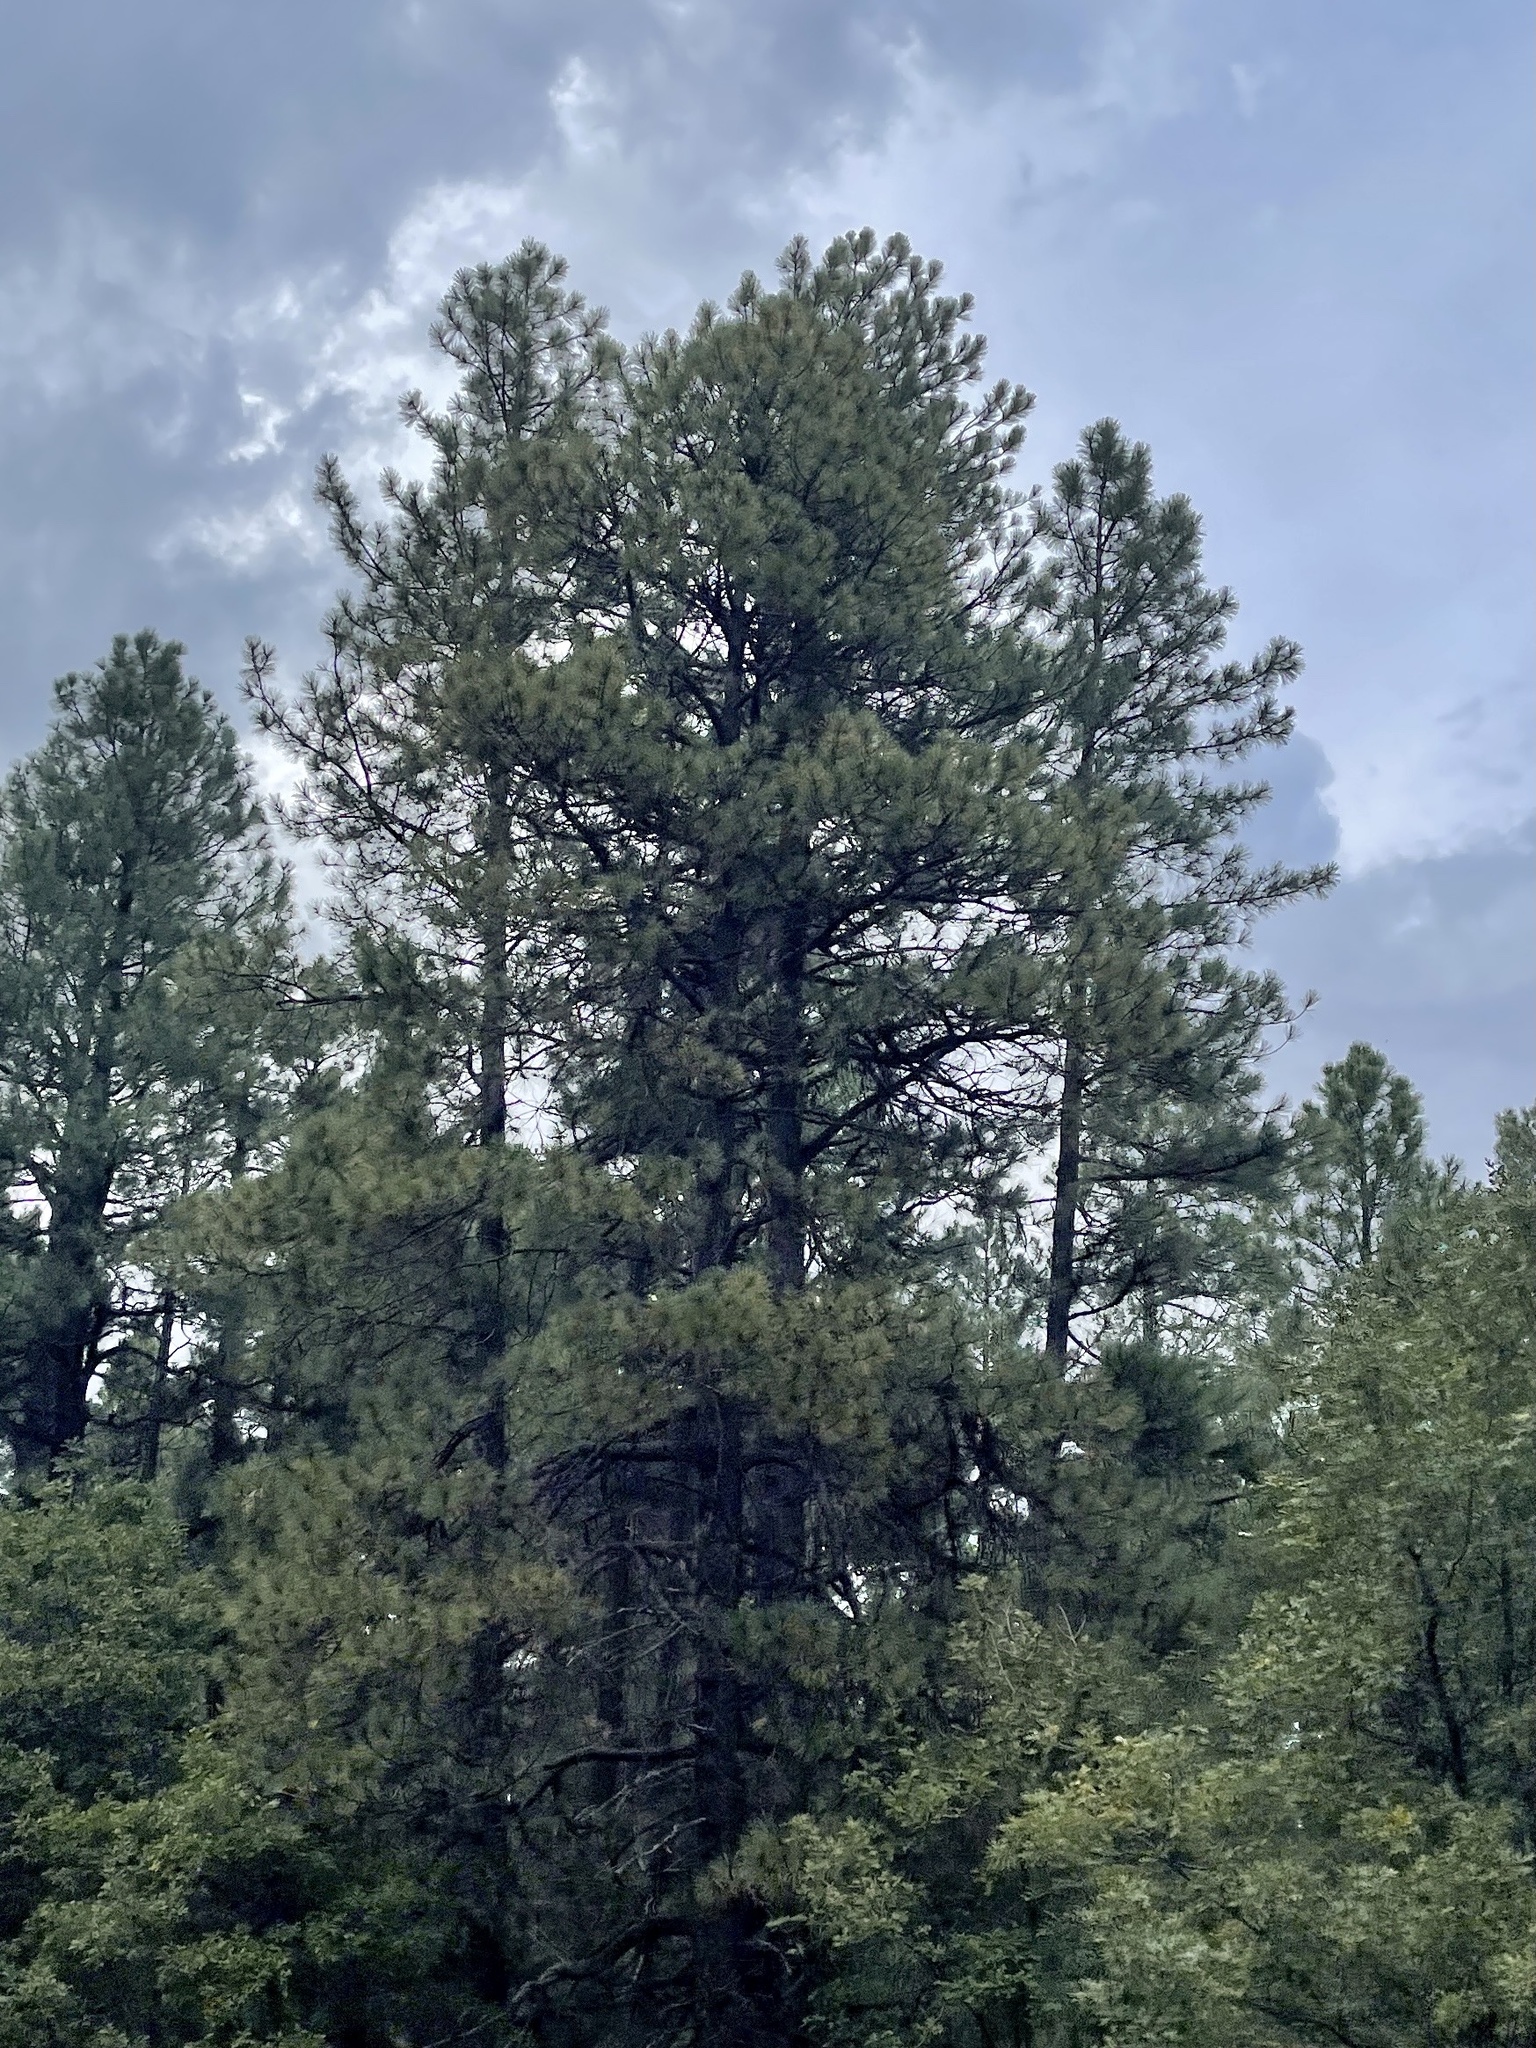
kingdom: Plantae
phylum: Tracheophyta
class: Pinopsida
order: Pinales
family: Pinaceae
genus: Pinus
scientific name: Pinus ponderosa
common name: Western yellow-pine
